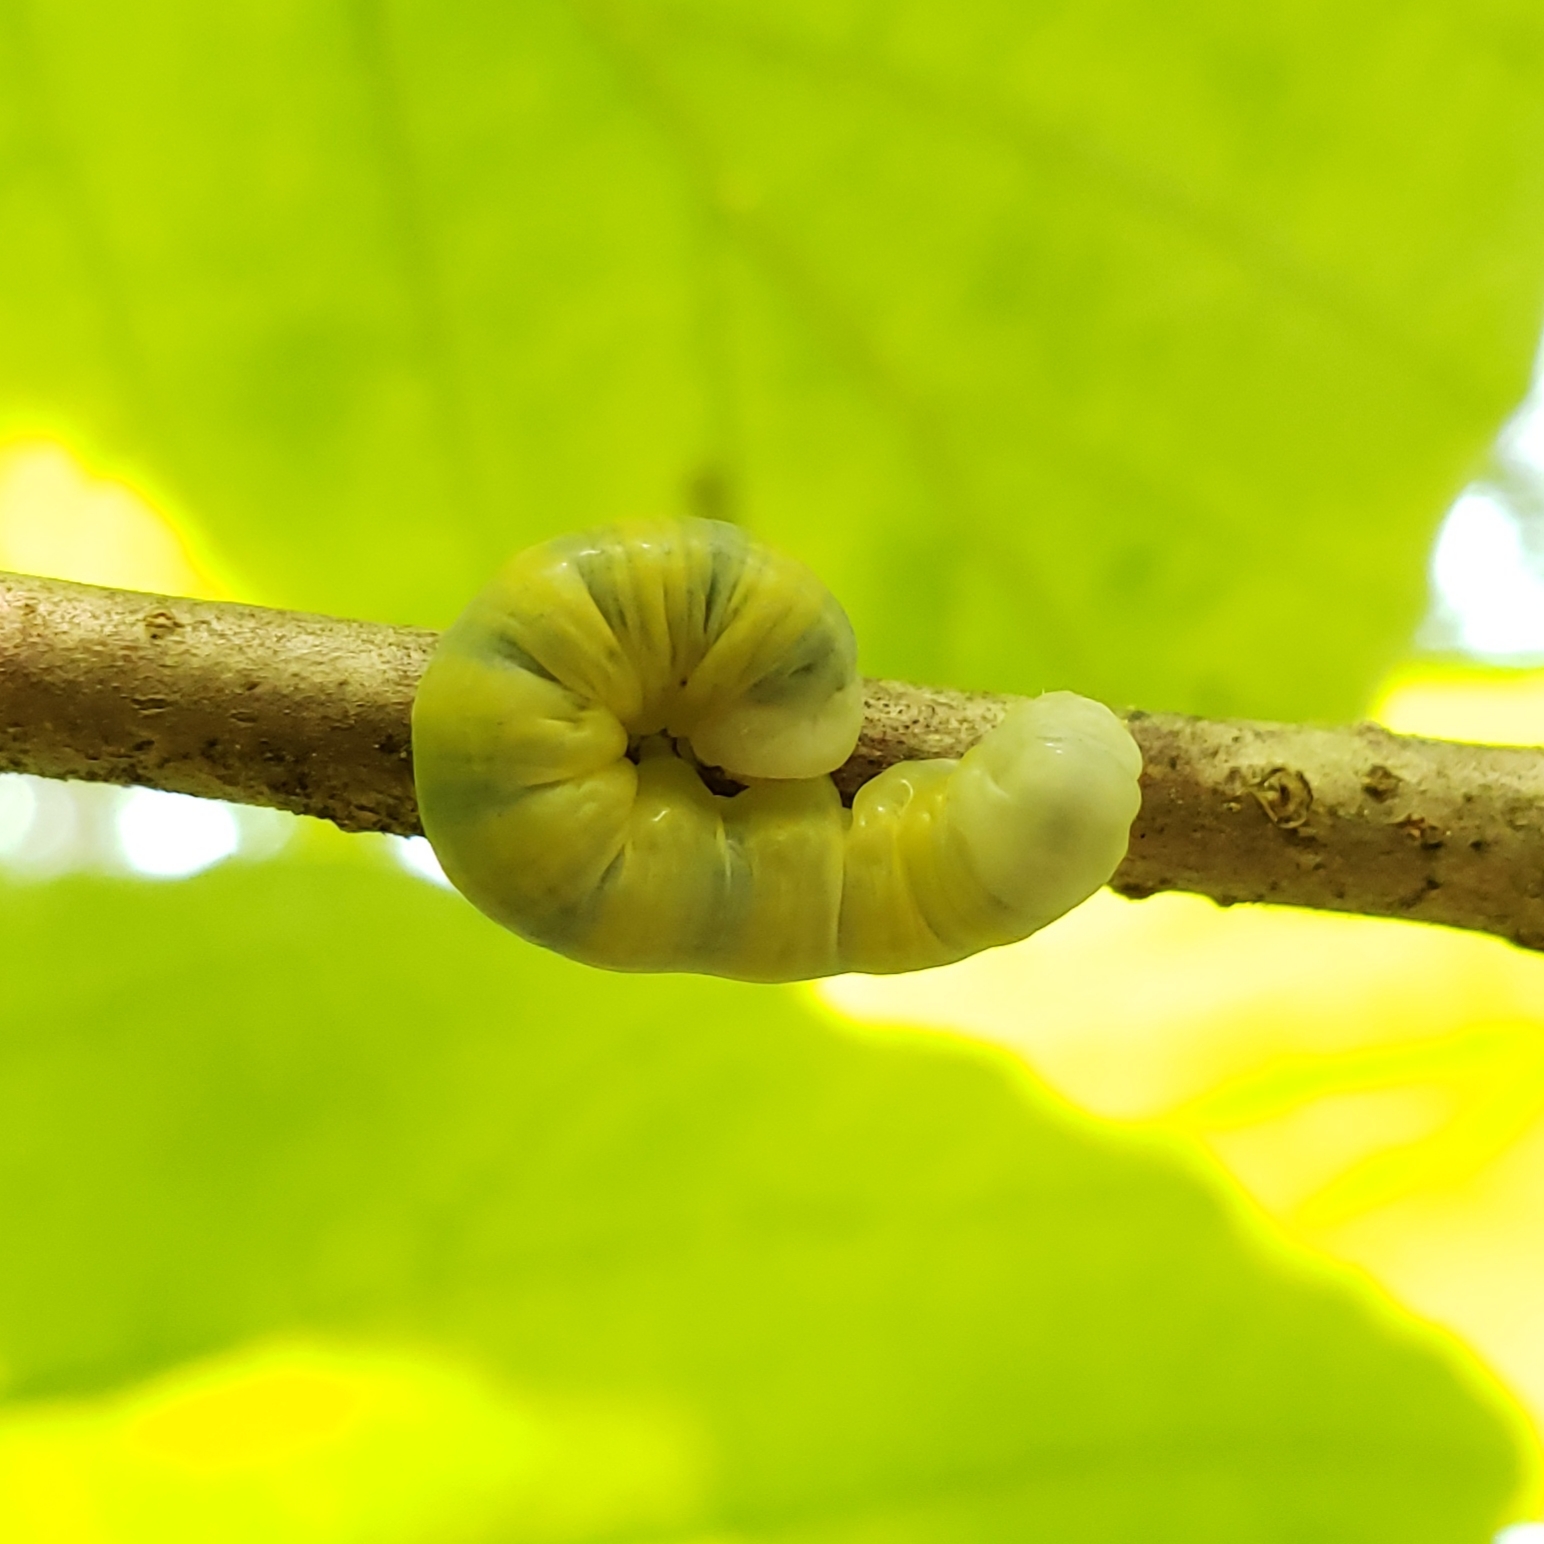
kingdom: Animalia
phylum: Arthropoda
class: Insecta
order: Lepidoptera
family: Noctuidae
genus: Pyreferra
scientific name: Pyreferra
